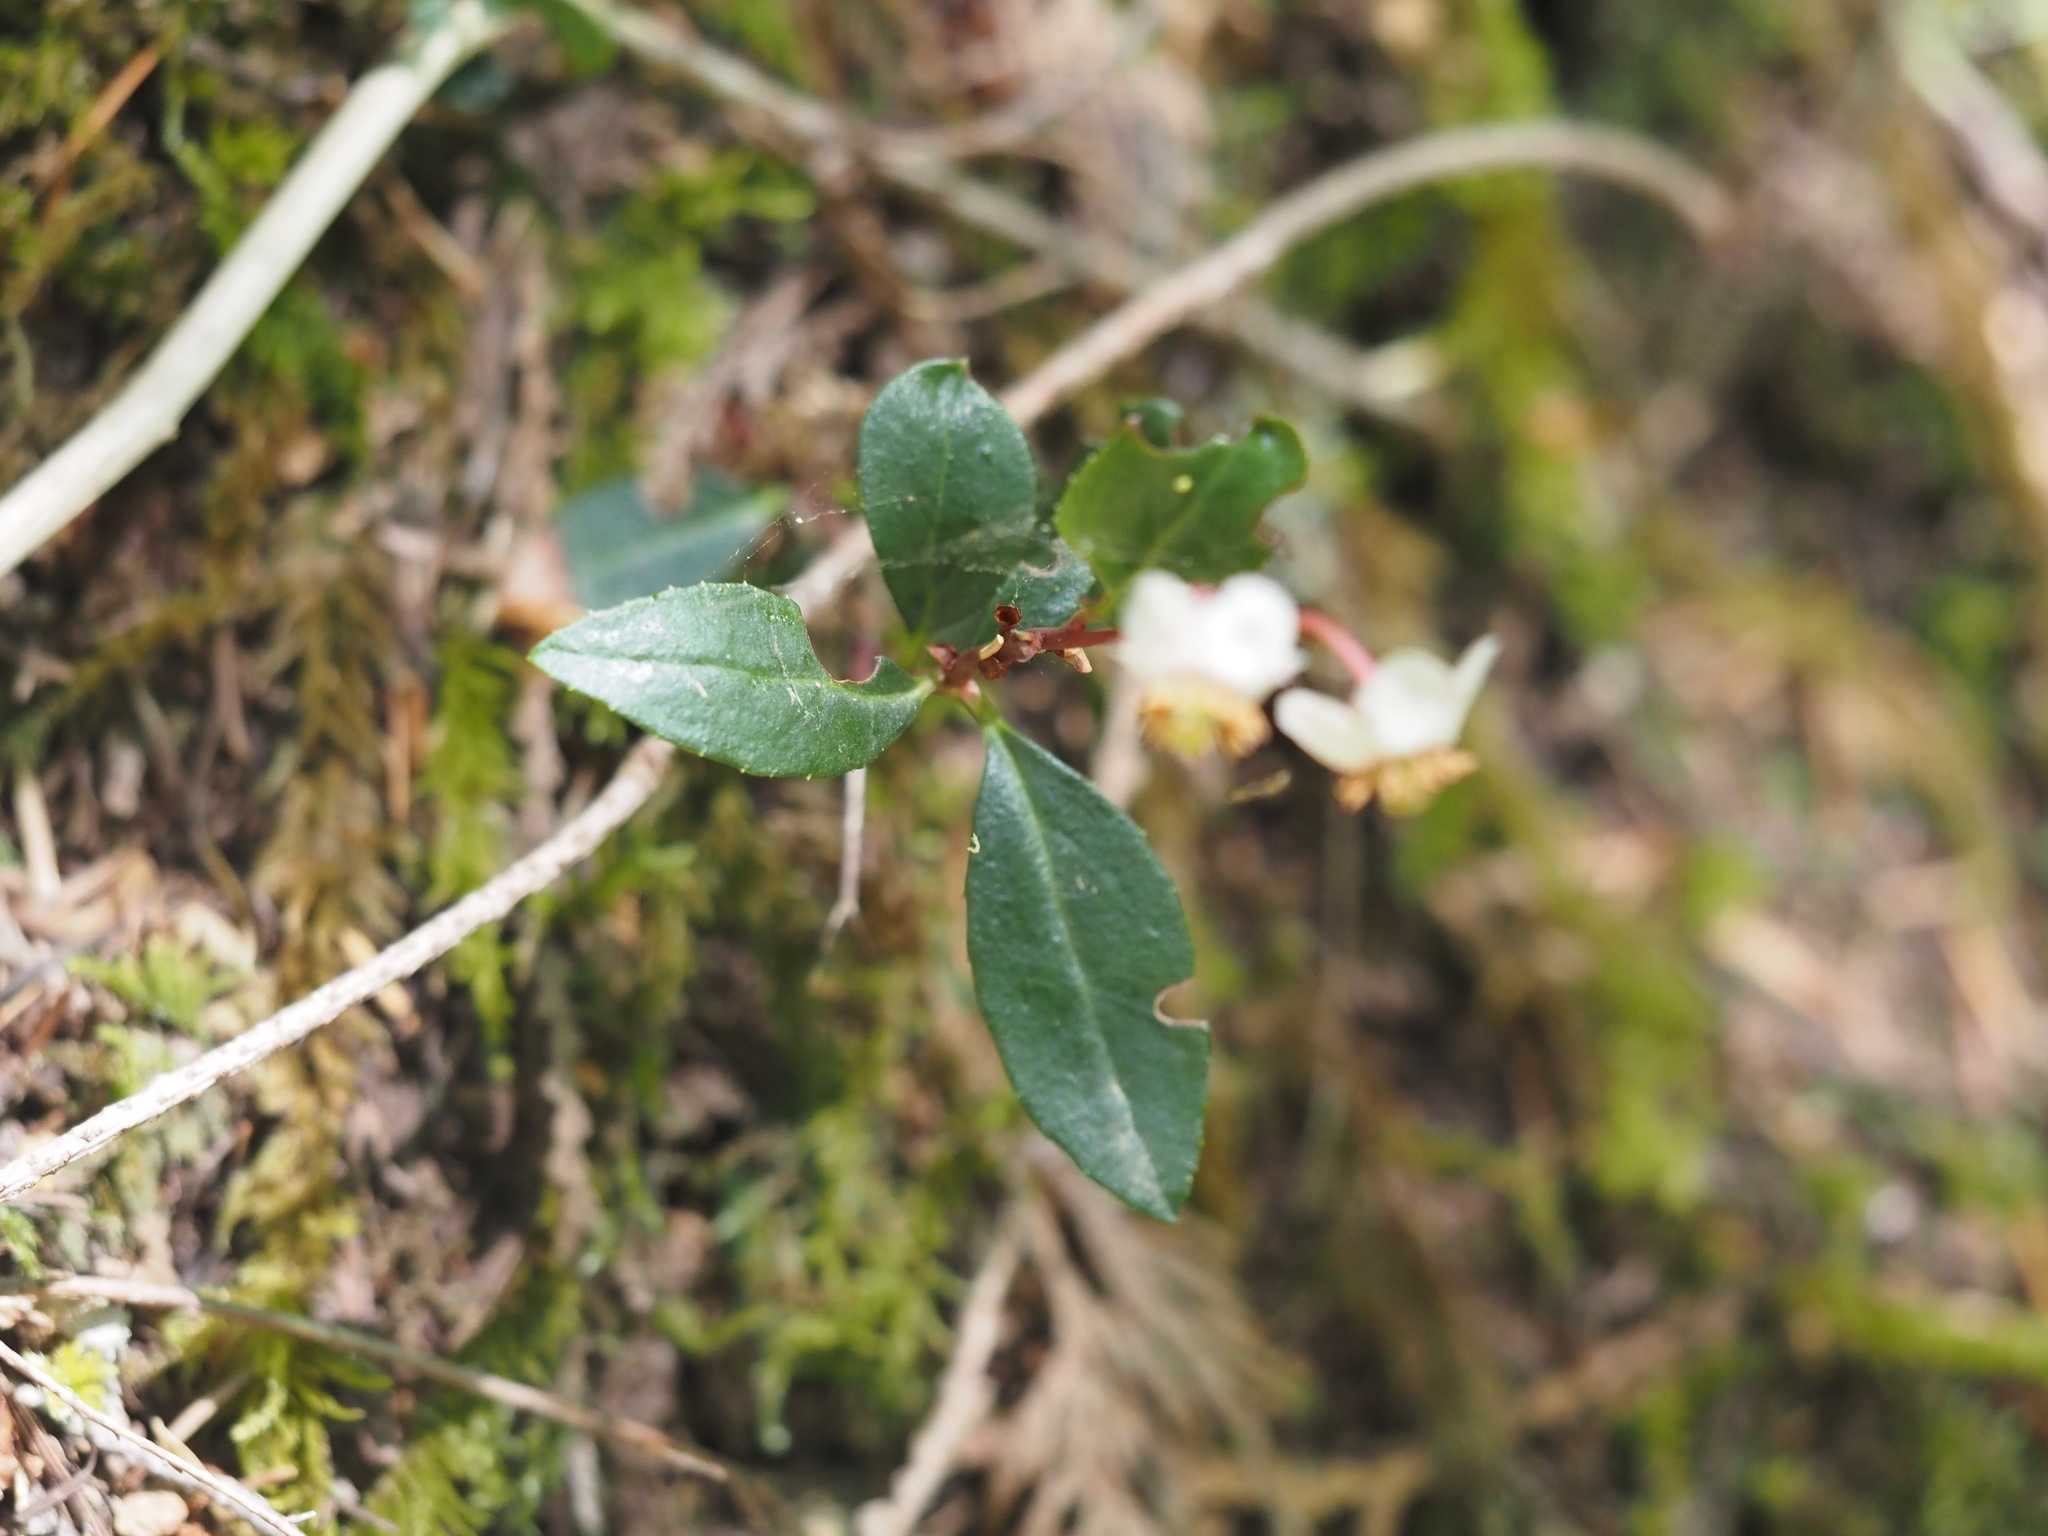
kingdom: Plantae
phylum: Tracheophyta
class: Magnoliopsida
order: Ericales
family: Ericaceae
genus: Chimaphila
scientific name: Chimaphila menziesii
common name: Menzies' pipsissewa
